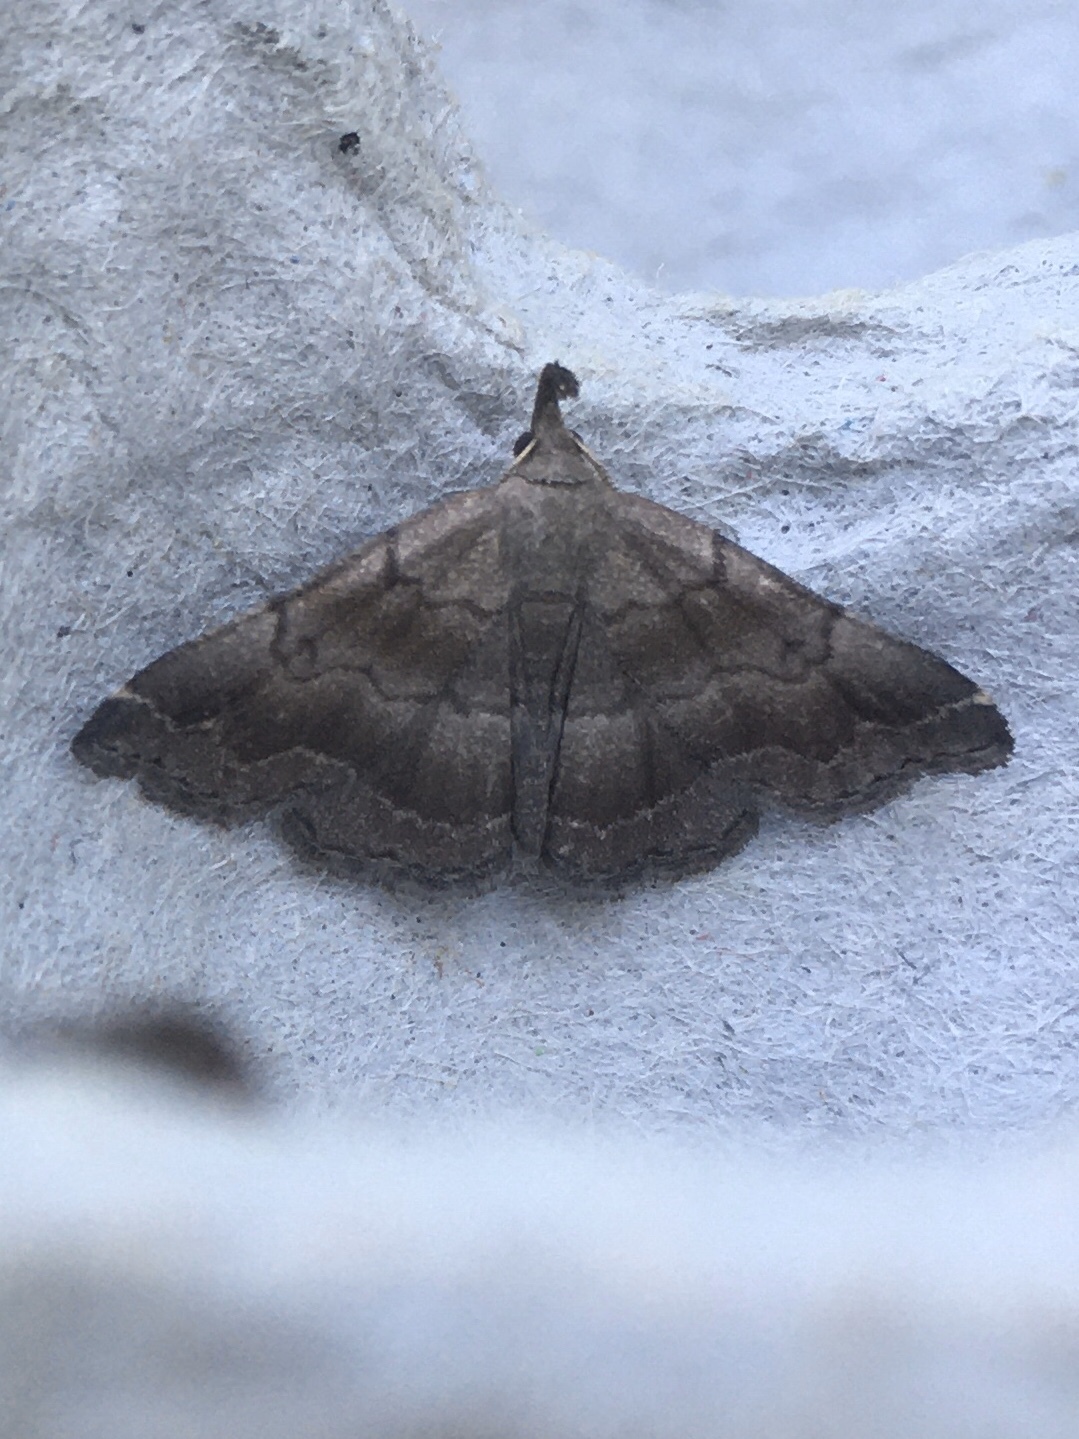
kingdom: Animalia
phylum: Arthropoda
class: Insecta
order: Lepidoptera
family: Erebidae
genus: Phalaenostola
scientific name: Phalaenostola larentioides
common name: Black-banded owlet
